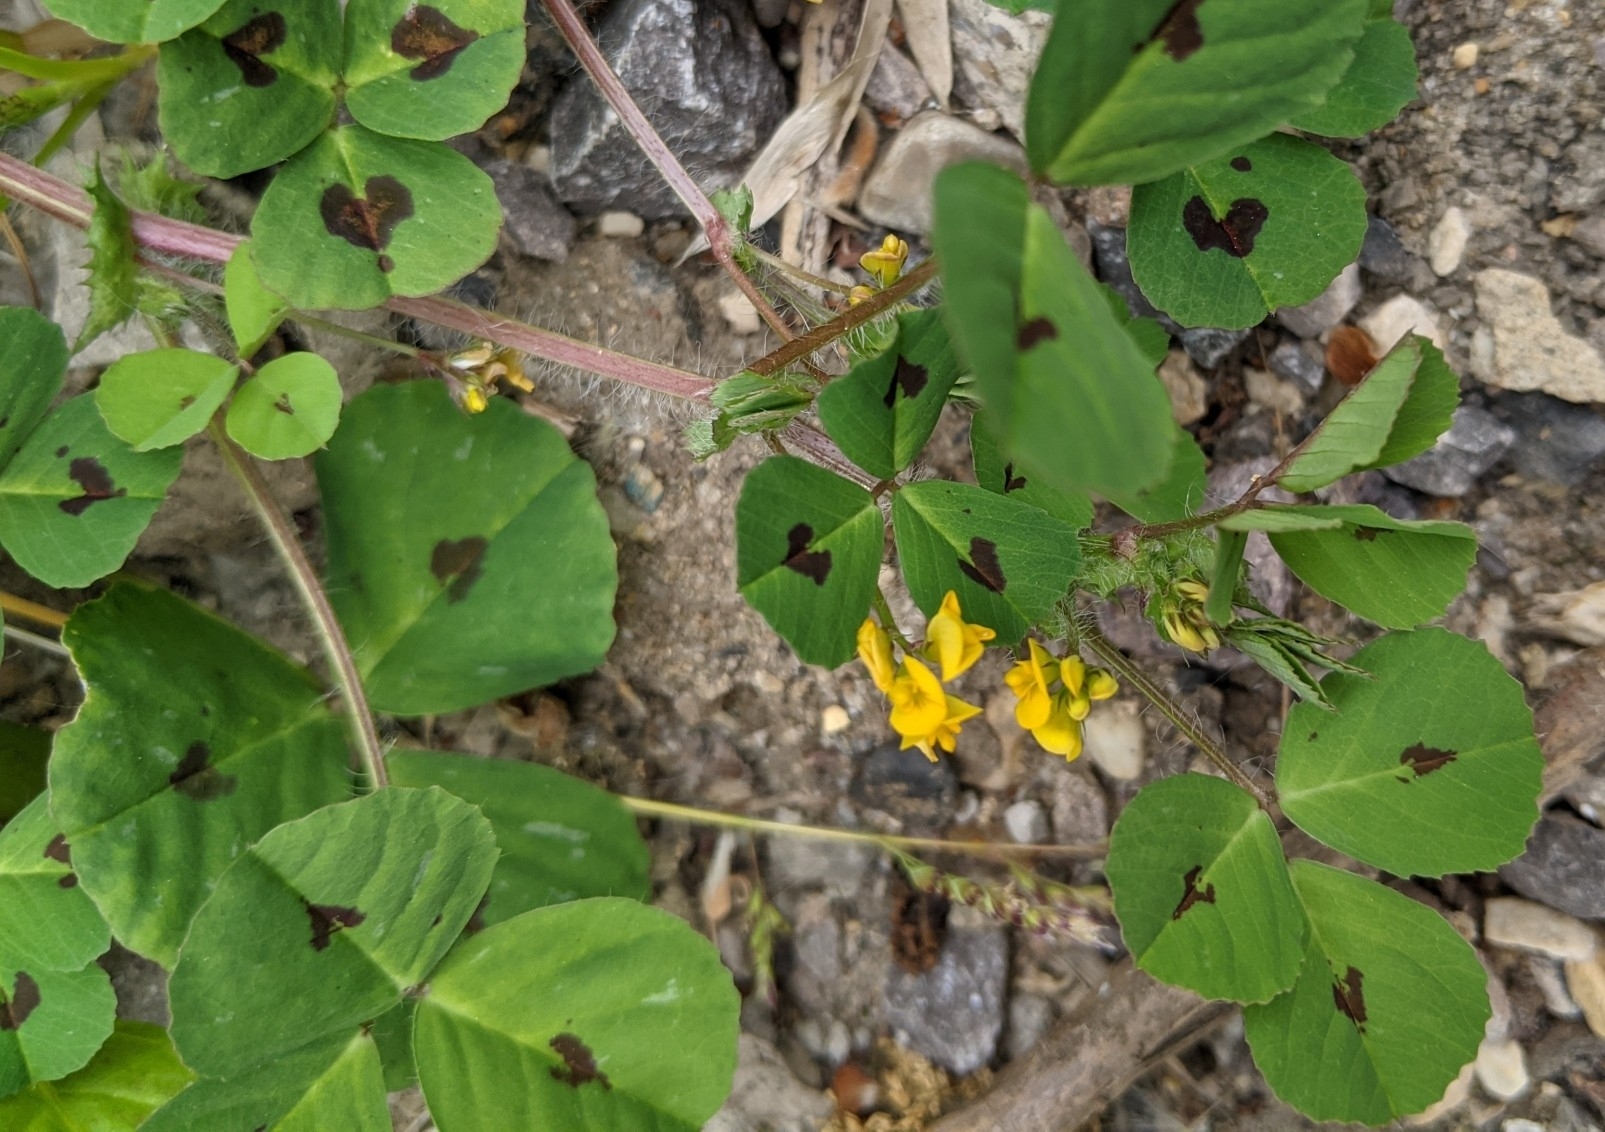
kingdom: Plantae
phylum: Tracheophyta
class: Magnoliopsida
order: Fabales
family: Fabaceae
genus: Medicago
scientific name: Medicago arabica
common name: Spotted medick
